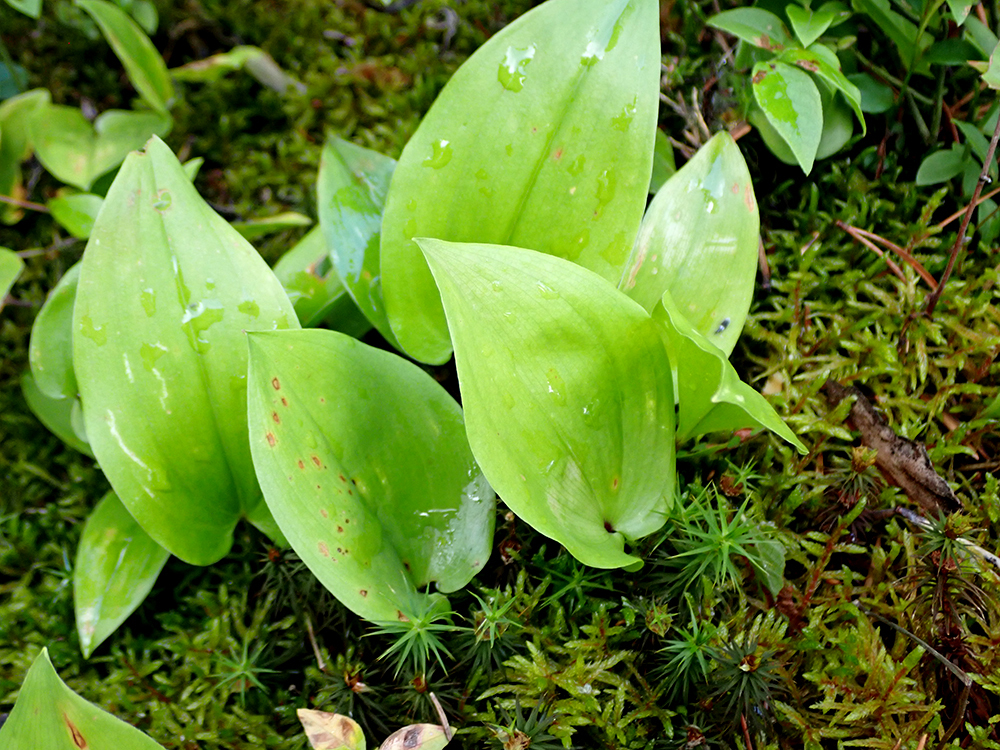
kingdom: Plantae
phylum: Tracheophyta
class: Liliopsida
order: Asparagales
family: Asparagaceae
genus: Maianthemum
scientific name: Maianthemum canadense
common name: False lily-of-the-valley
